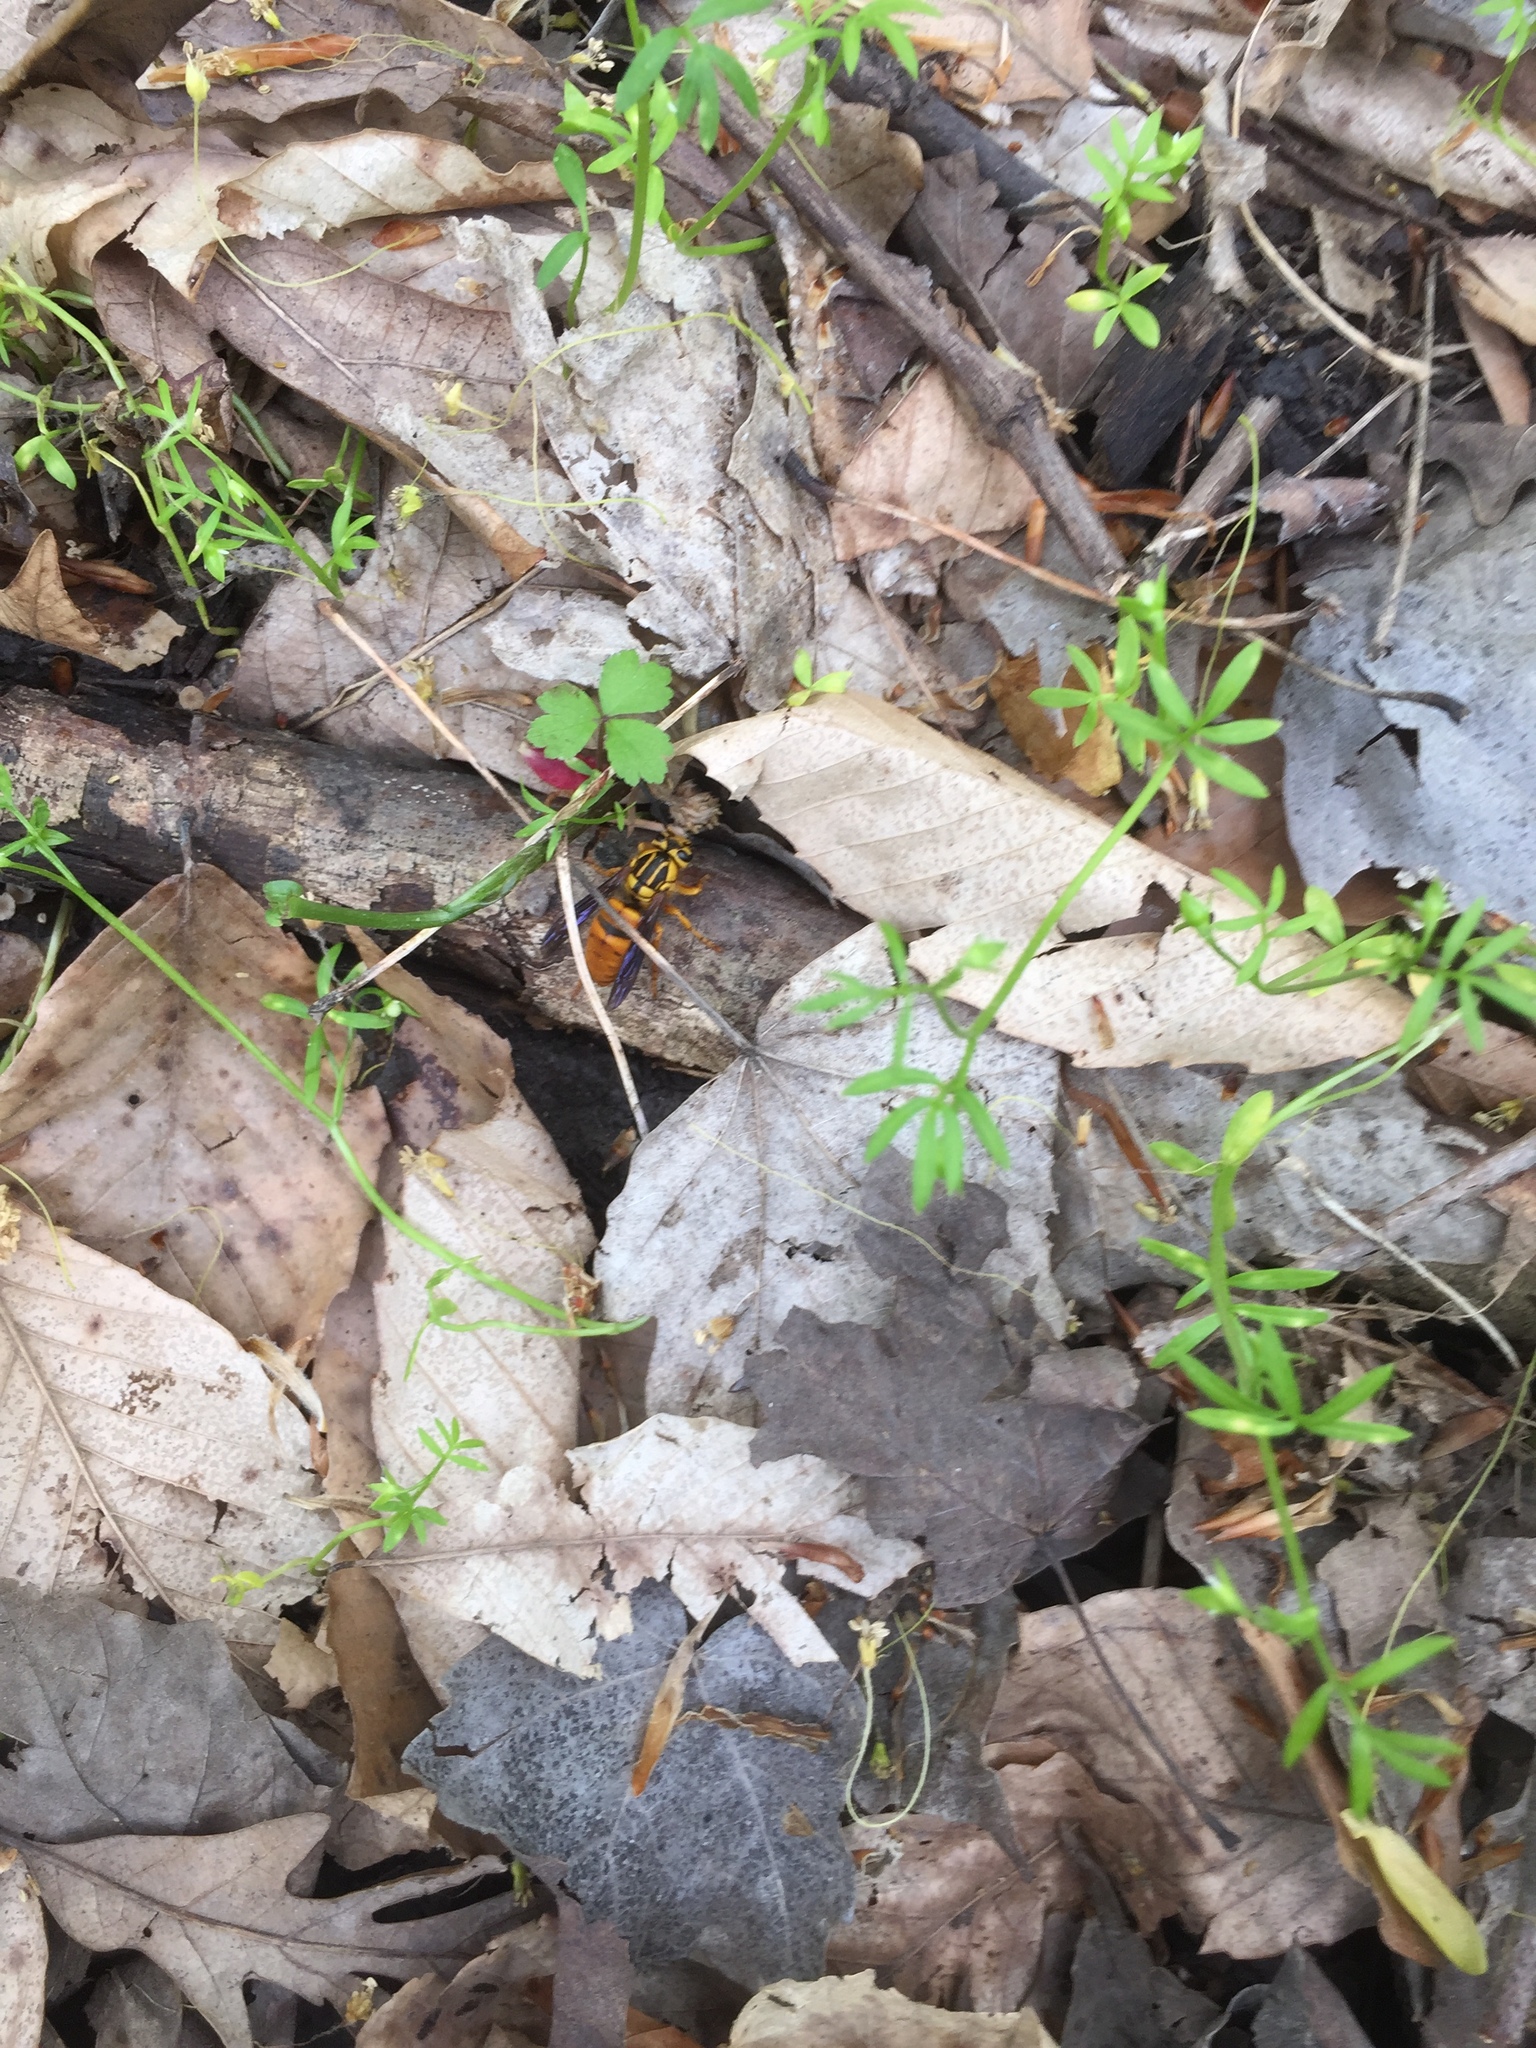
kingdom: Animalia
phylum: Arthropoda
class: Insecta
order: Hymenoptera
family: Vespidae
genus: Vespula
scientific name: Vespula squamosa
